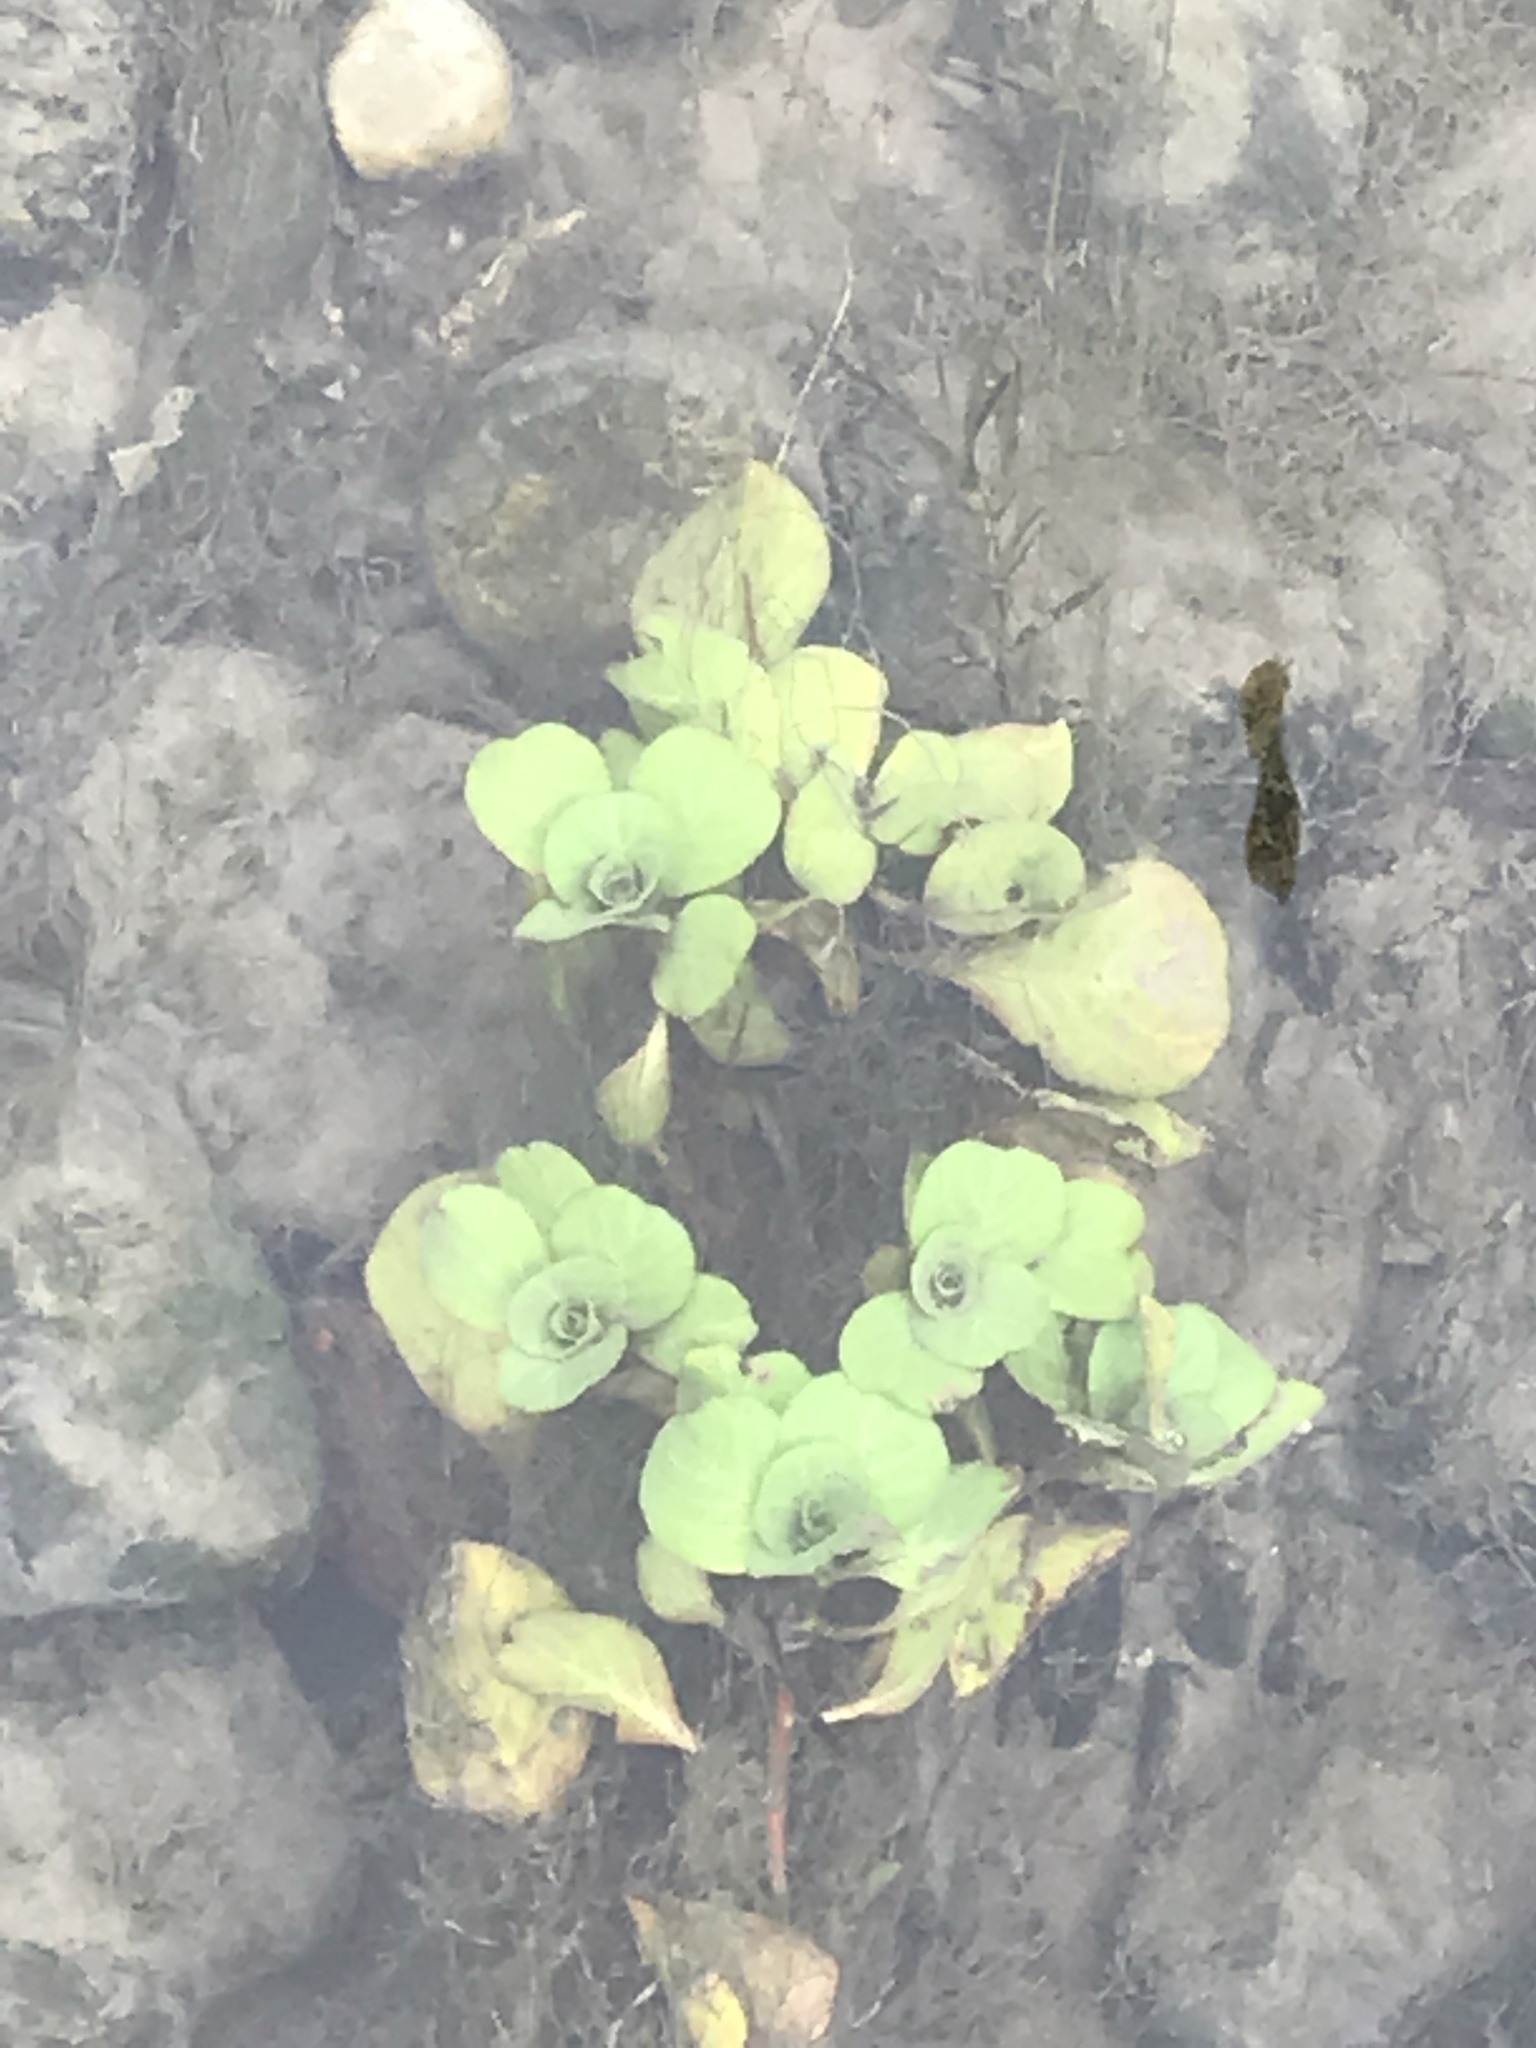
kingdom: Plantae
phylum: Tracheophyta
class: Magnoliopsida
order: Brassicales
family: Brassicaceae
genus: Nasturtium
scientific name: Nasturtium officinale
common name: Watercress
